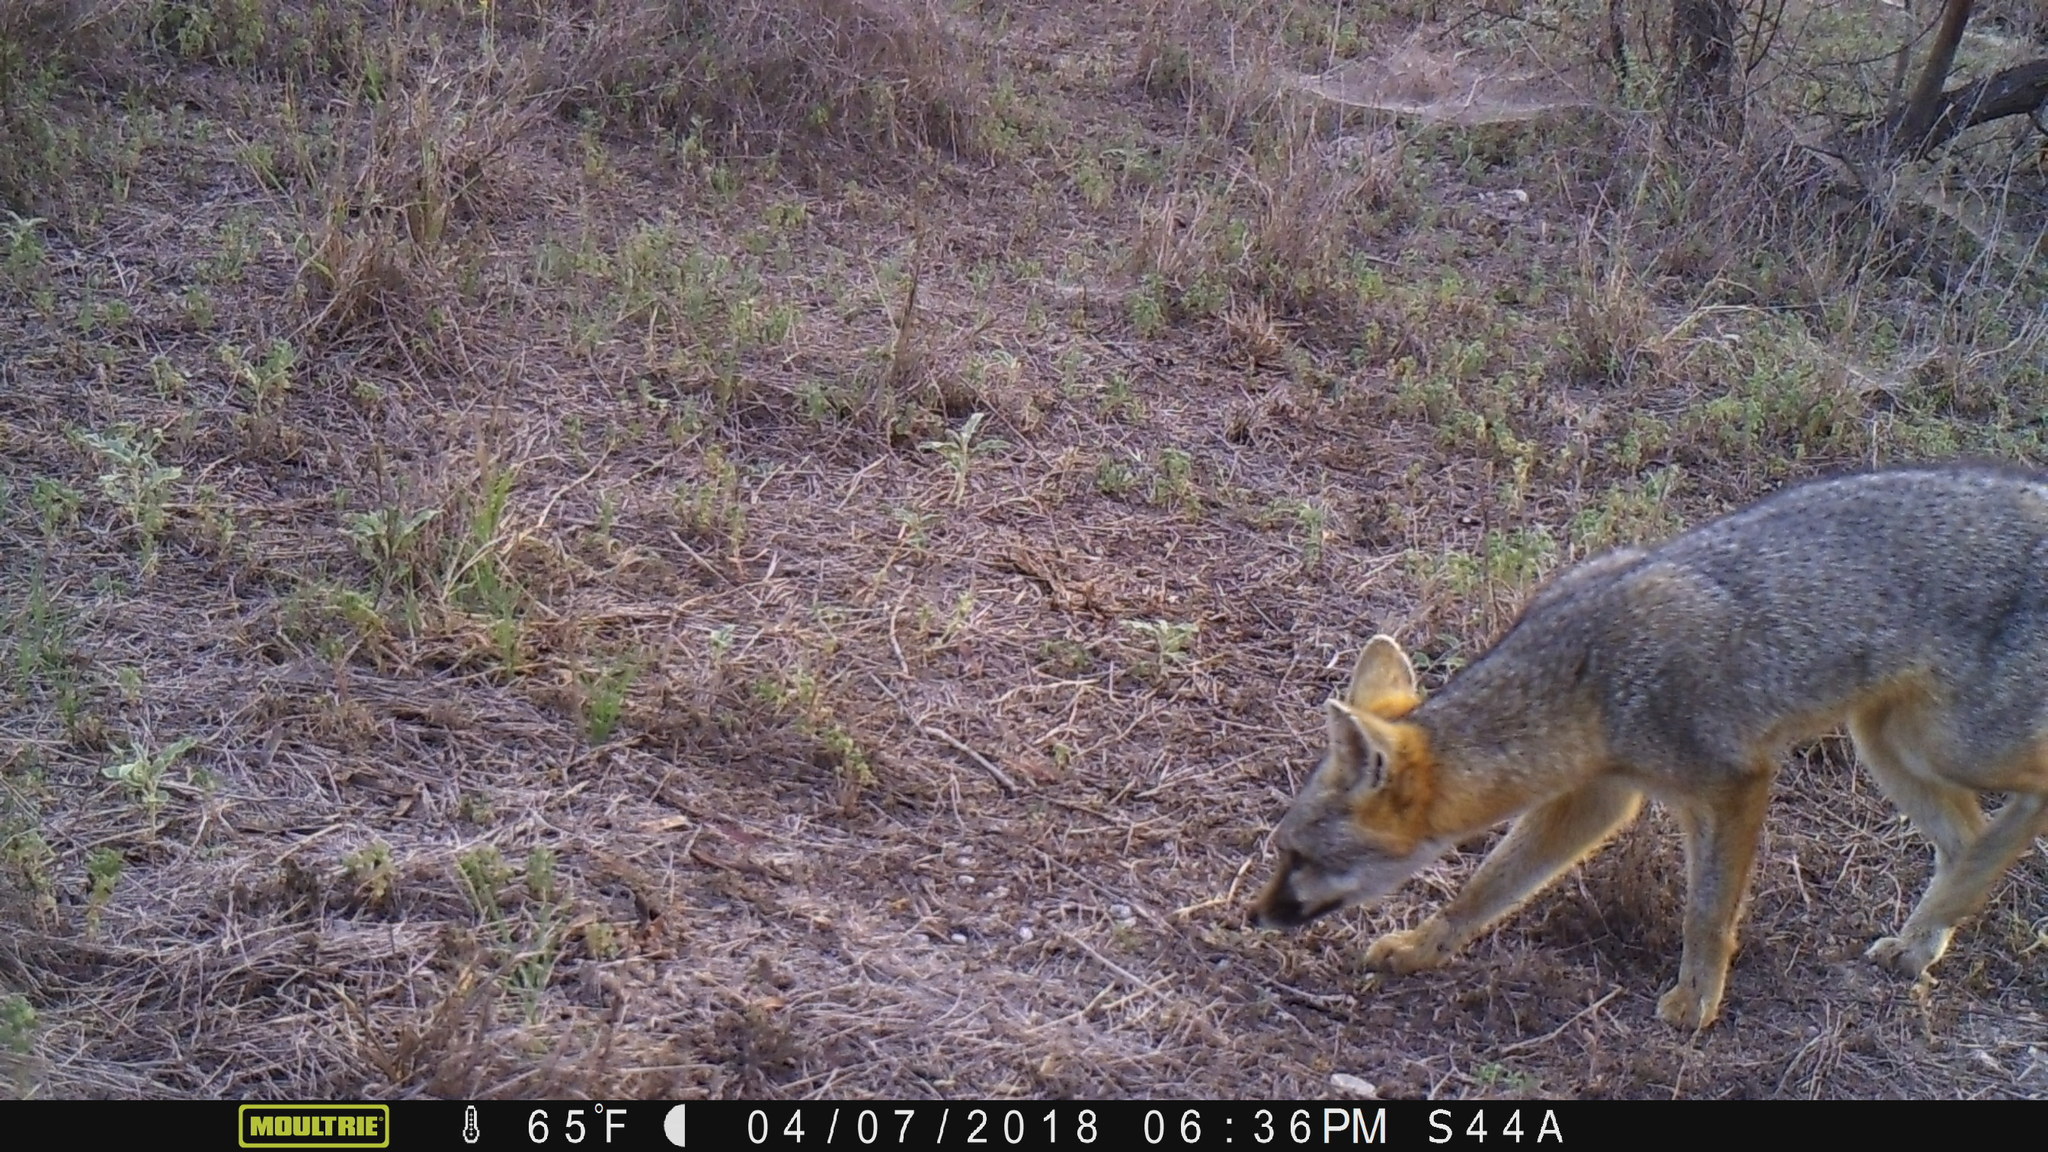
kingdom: Animalia
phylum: Chordata
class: Mammalia
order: Carnivora
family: Canidae
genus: Urocyon
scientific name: Urocyon cinereoargenteus
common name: Gray fox
